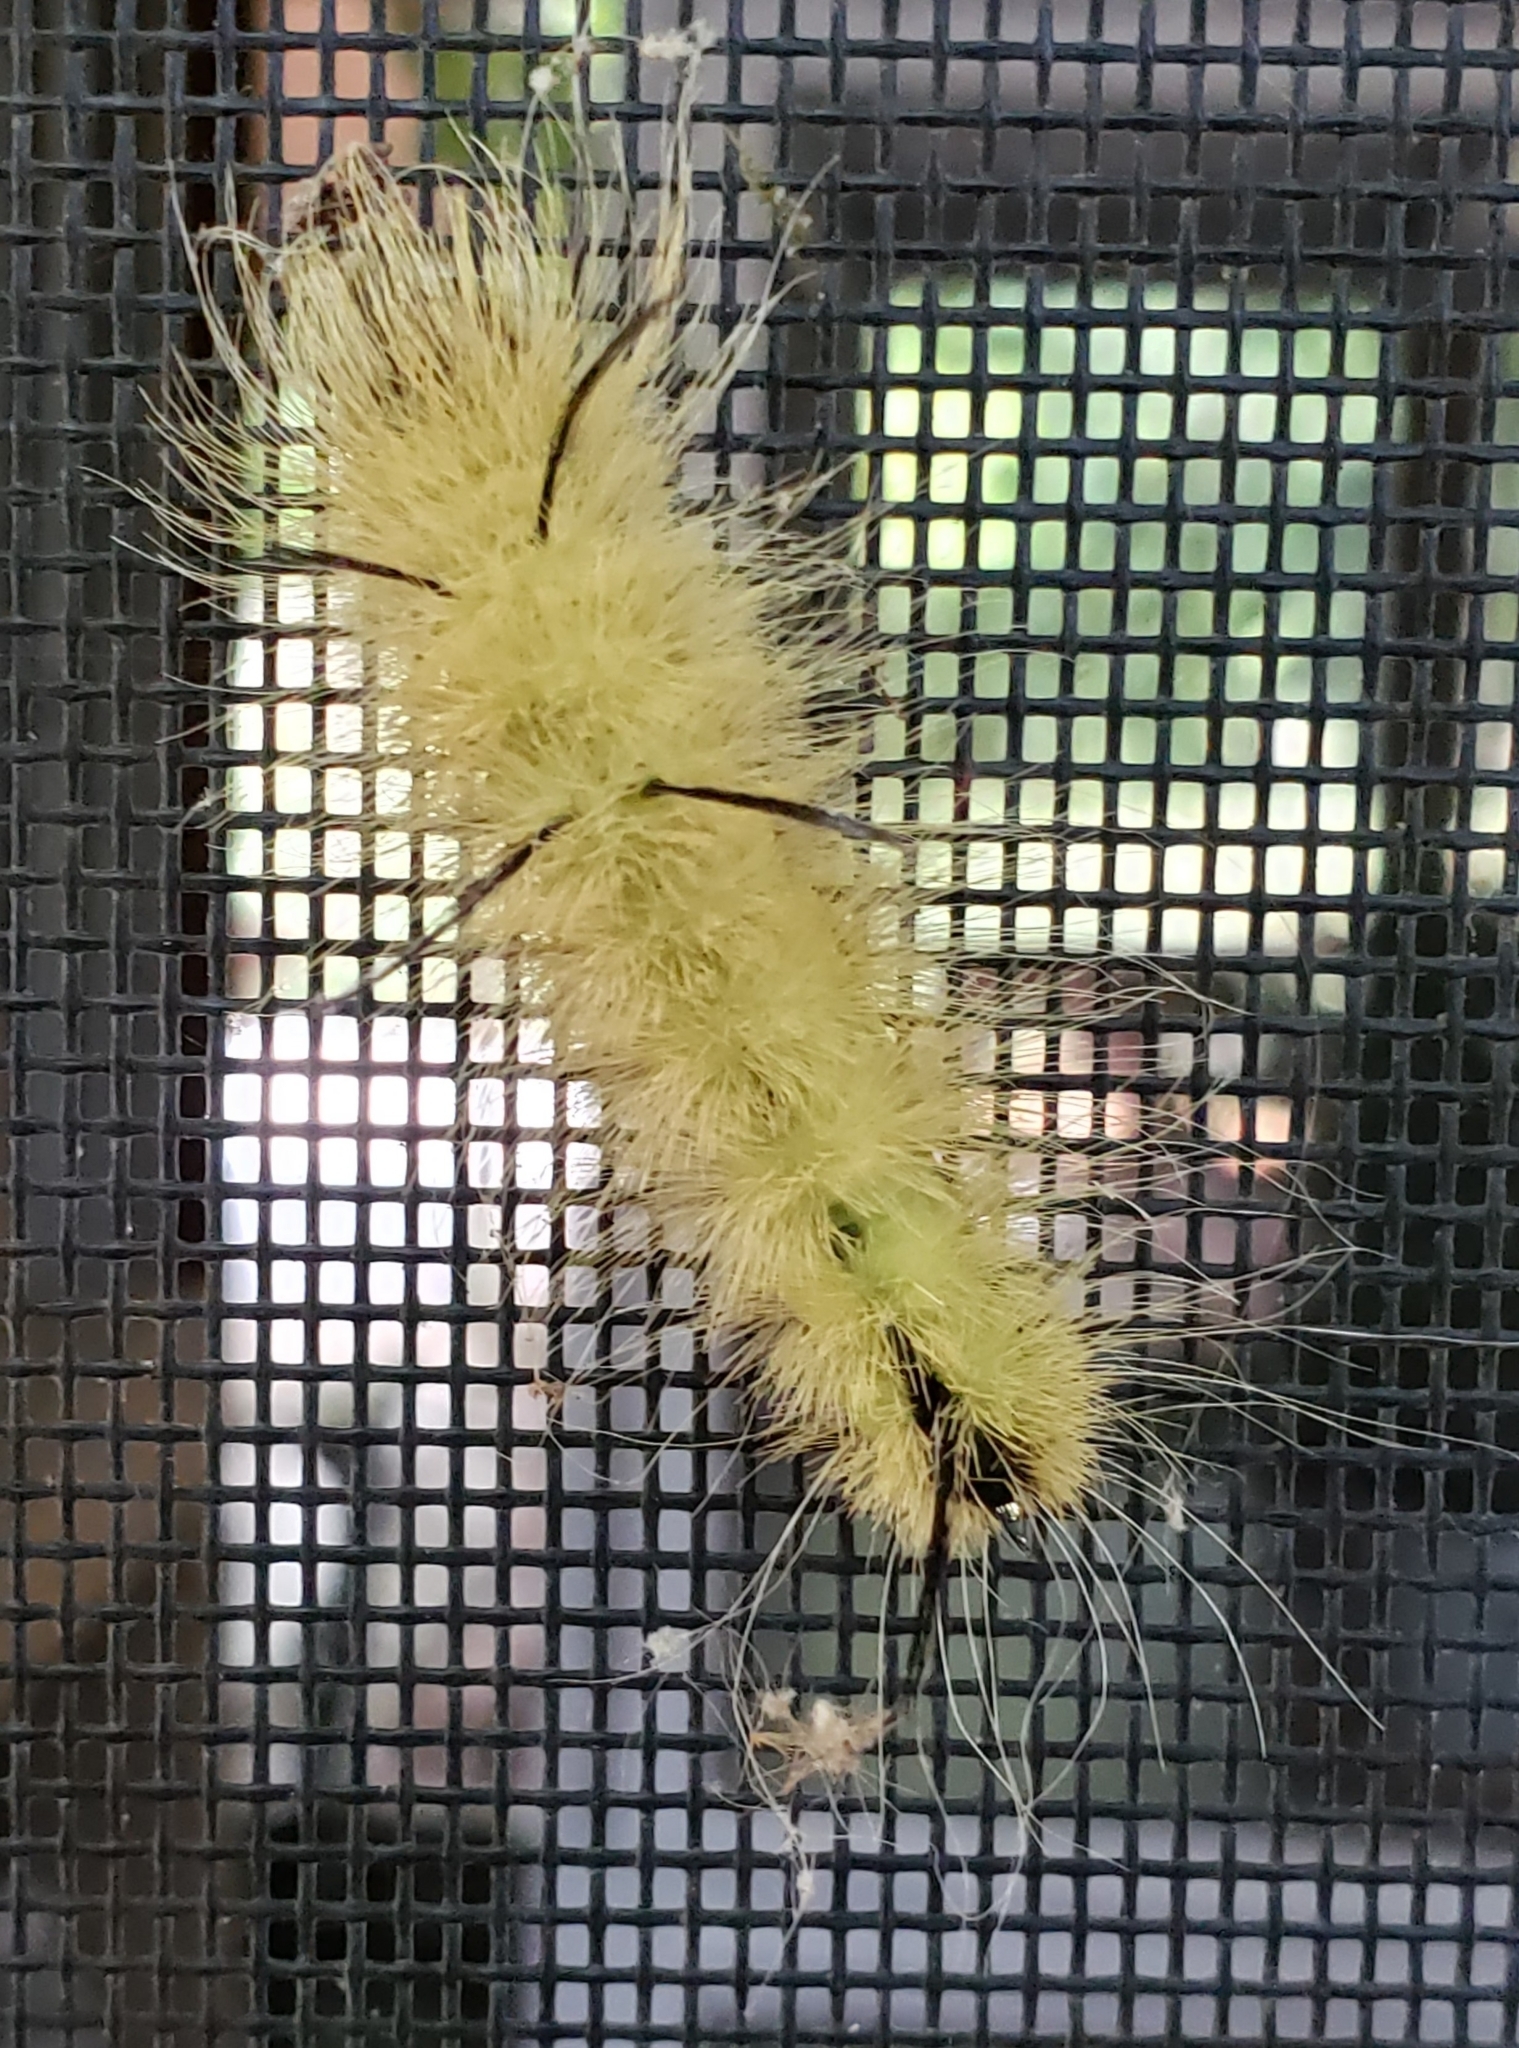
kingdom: Animalia
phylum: Arthropoda
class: Insecta
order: Lepidoptera
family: Noctuidae
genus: Acronicta
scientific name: Acronicta americana
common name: American dagger
